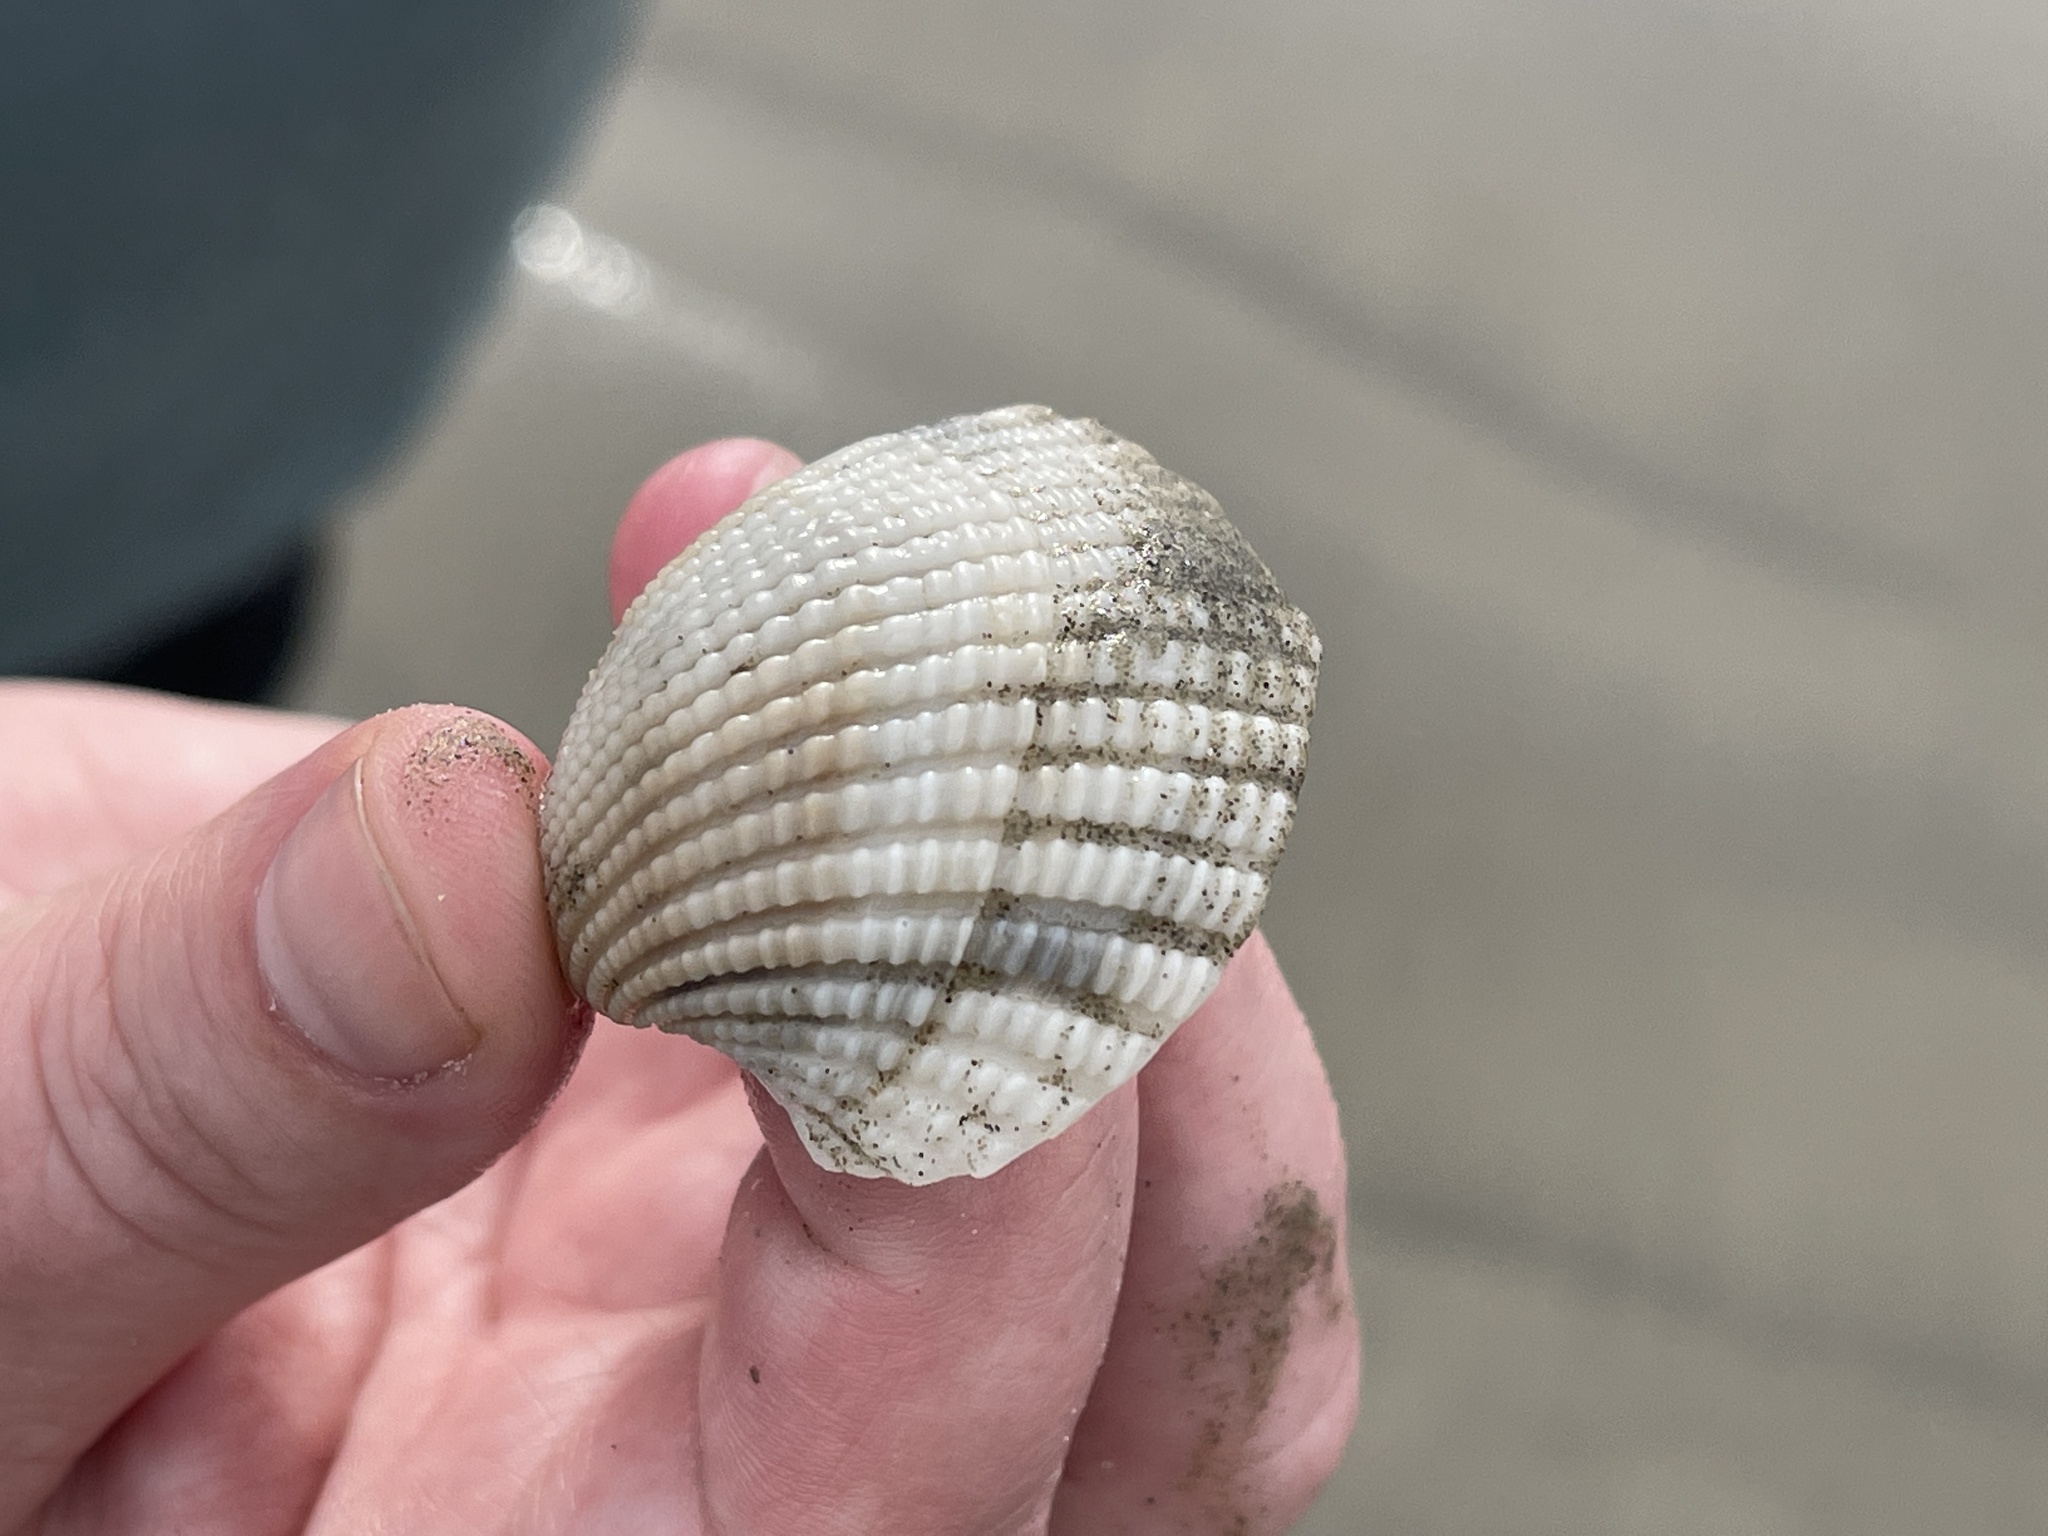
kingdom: Animalia
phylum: Mollusca
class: Bivalvia
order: Arcida
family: Arcidae
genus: Anadara
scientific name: Anadara brasiliana
